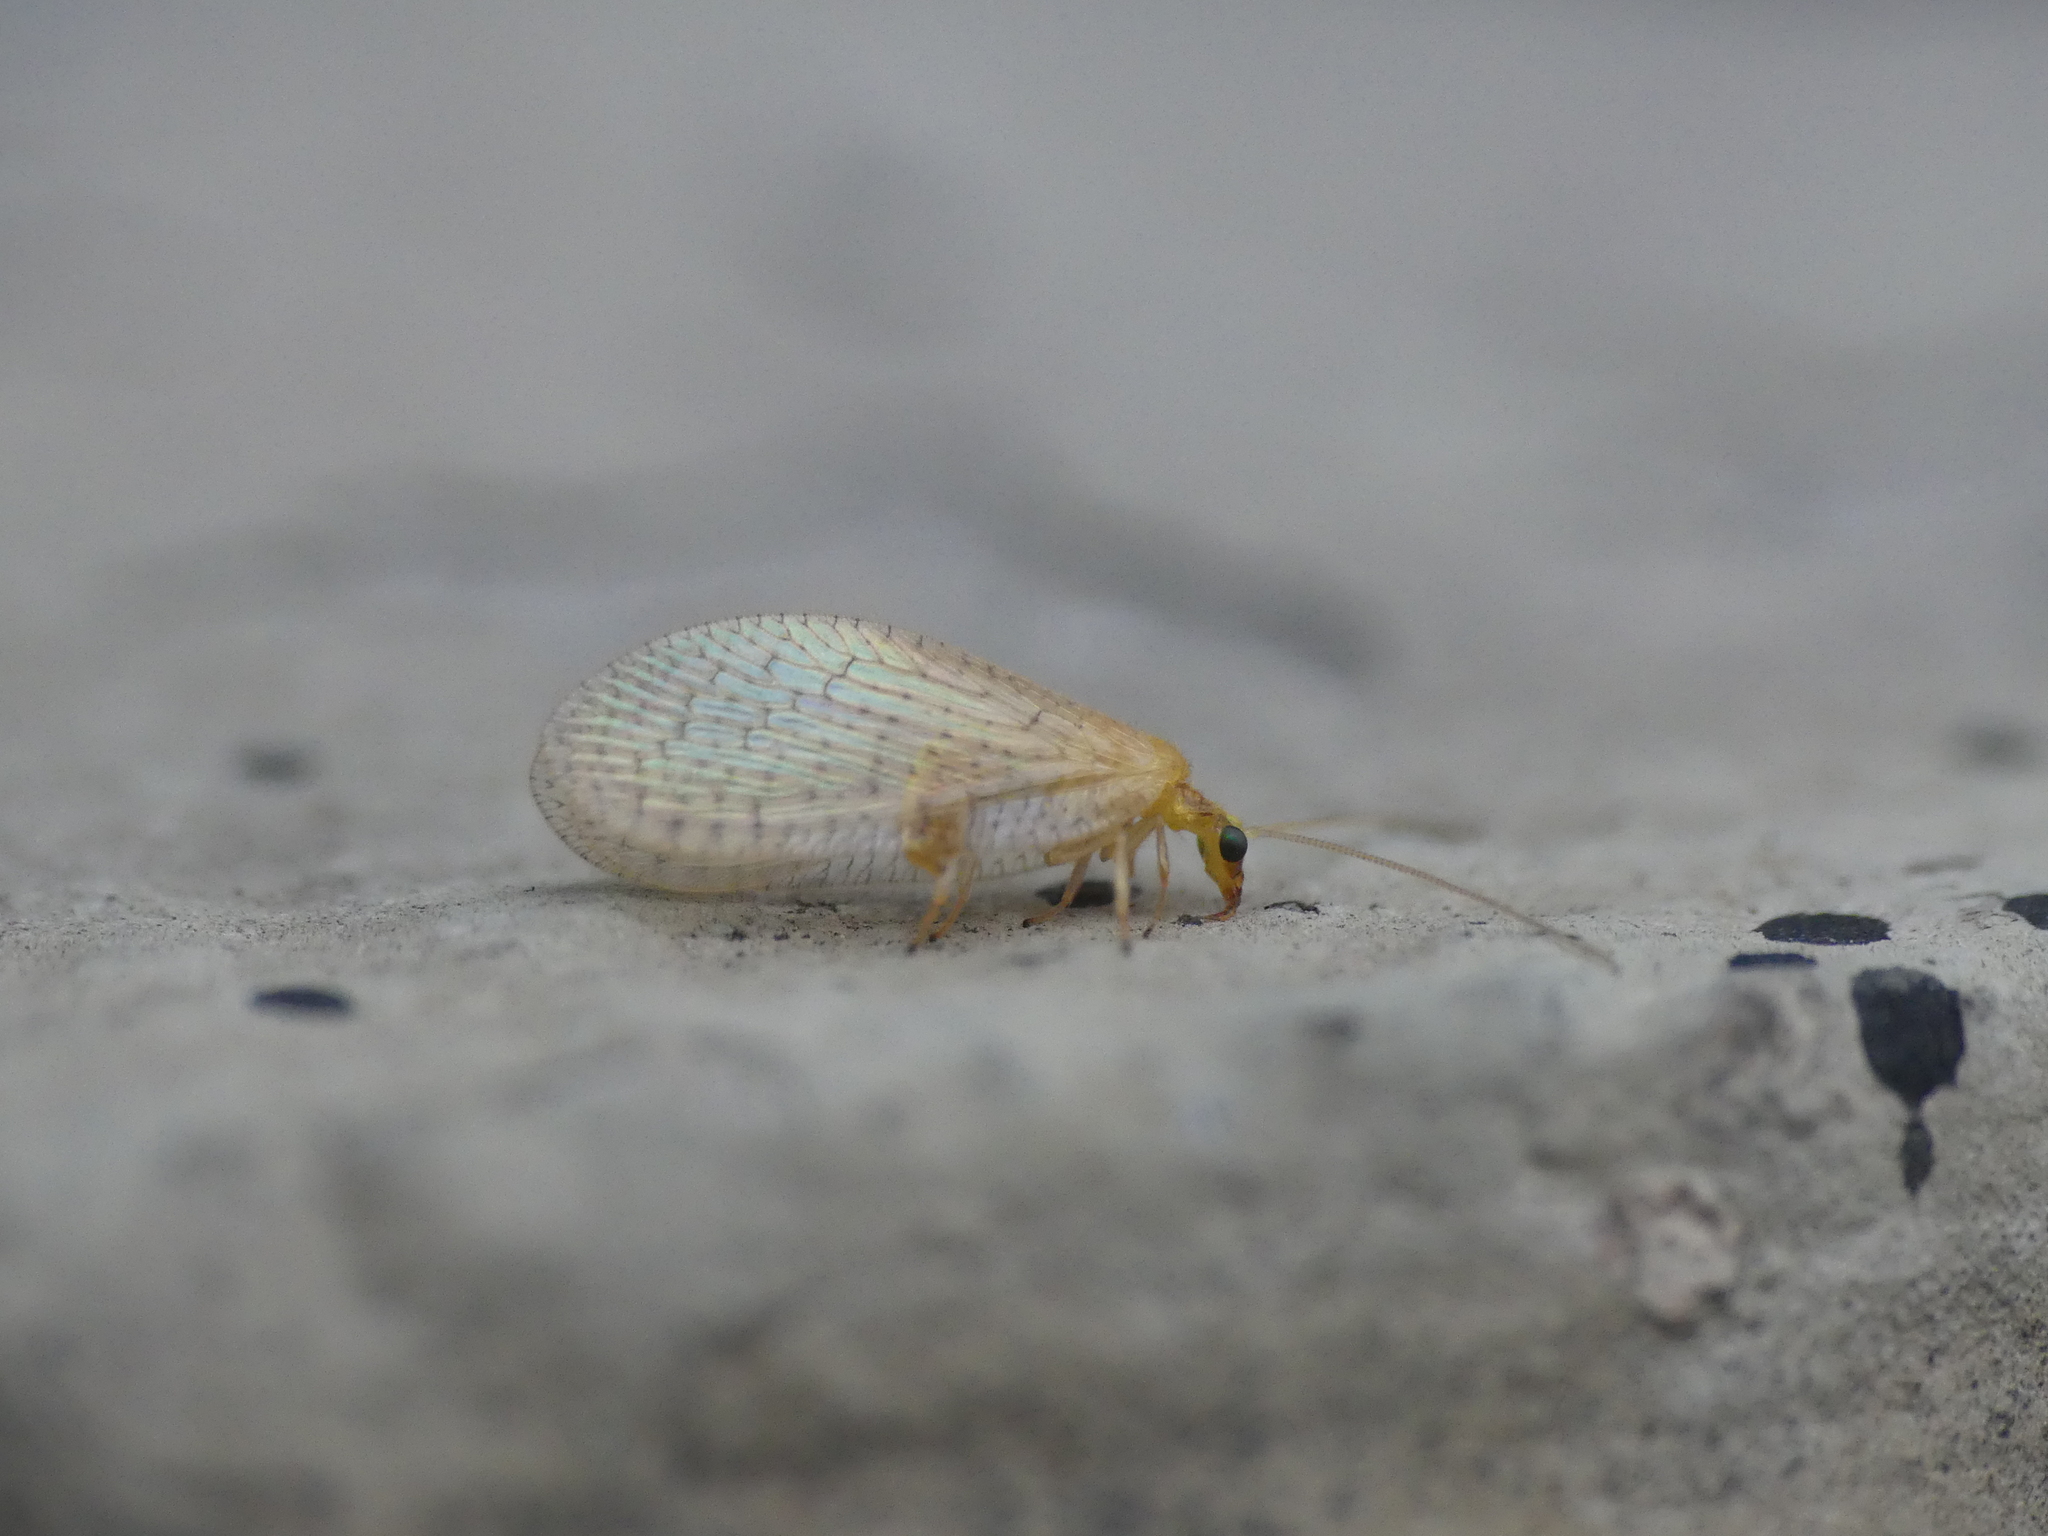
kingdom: Animalia
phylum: Arthropoda
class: Insecta
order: Neuroptera
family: Hemerobiidae
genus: Hemerobius
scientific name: Hemerobius micans
